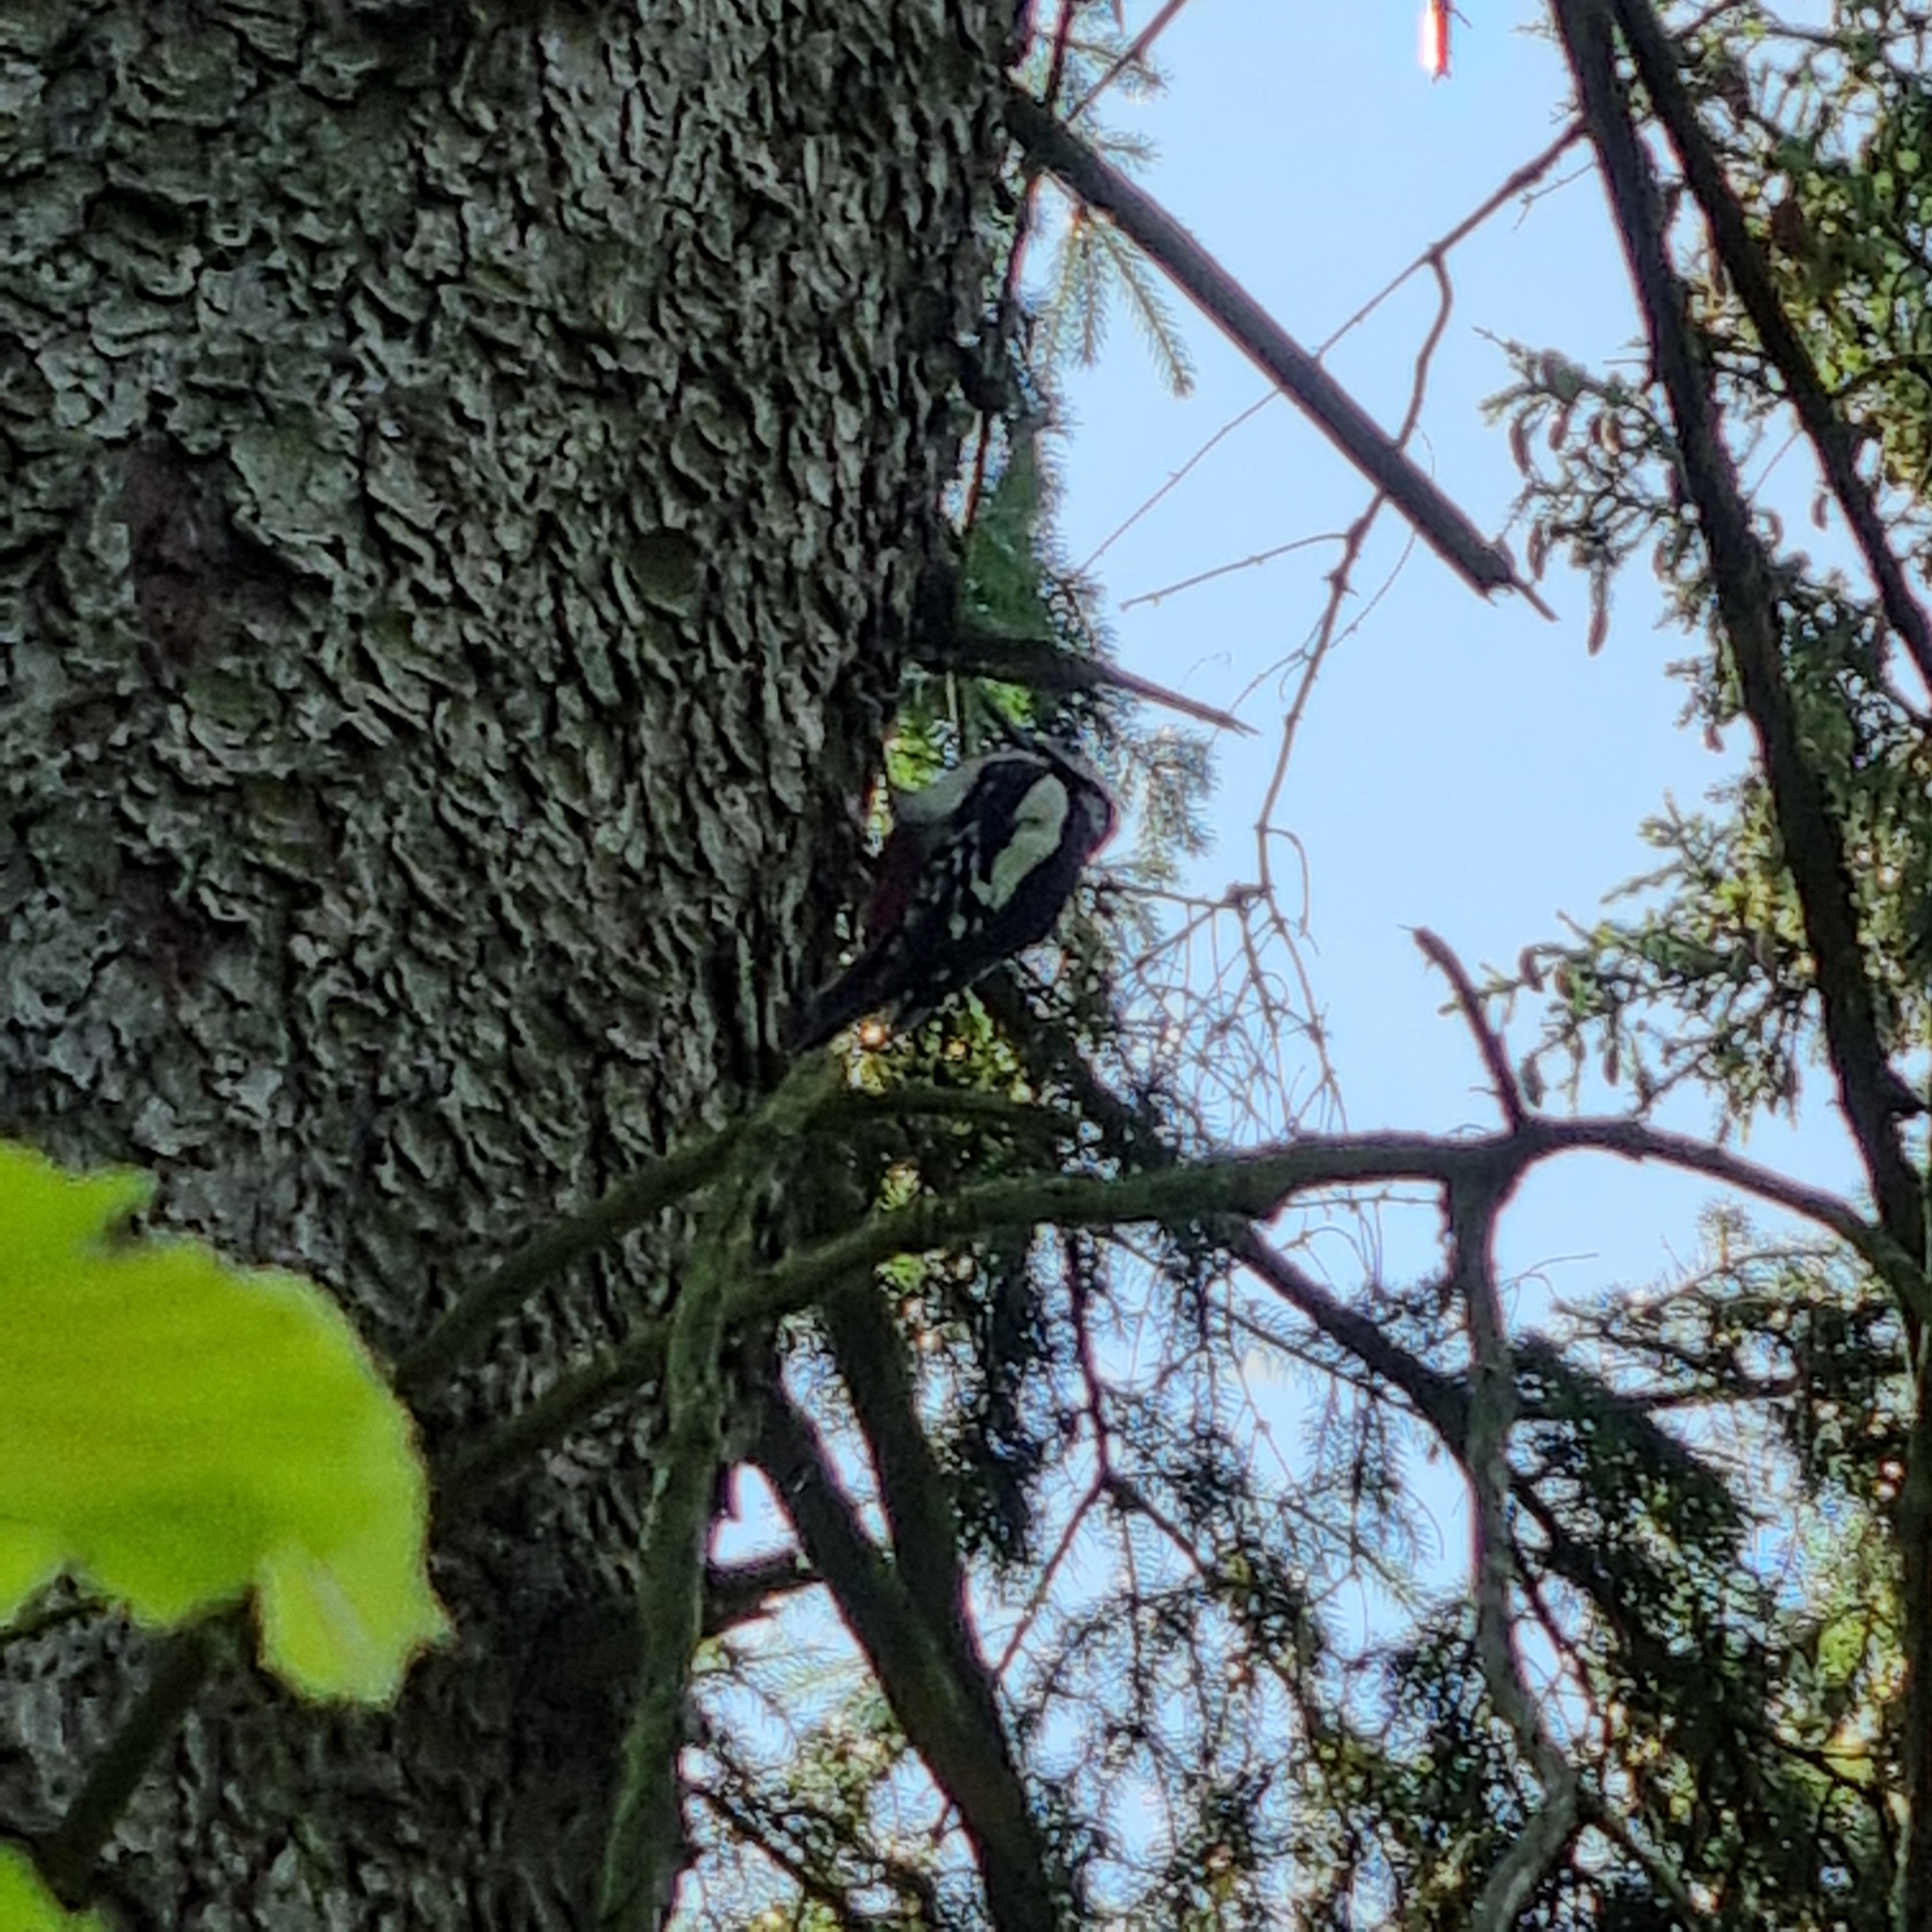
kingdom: Animalia
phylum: Chordata
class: Aves
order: Piciformes
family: Picidae
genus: Dendrocopos
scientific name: Dendrocopos major
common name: Great spotted woodpecker
